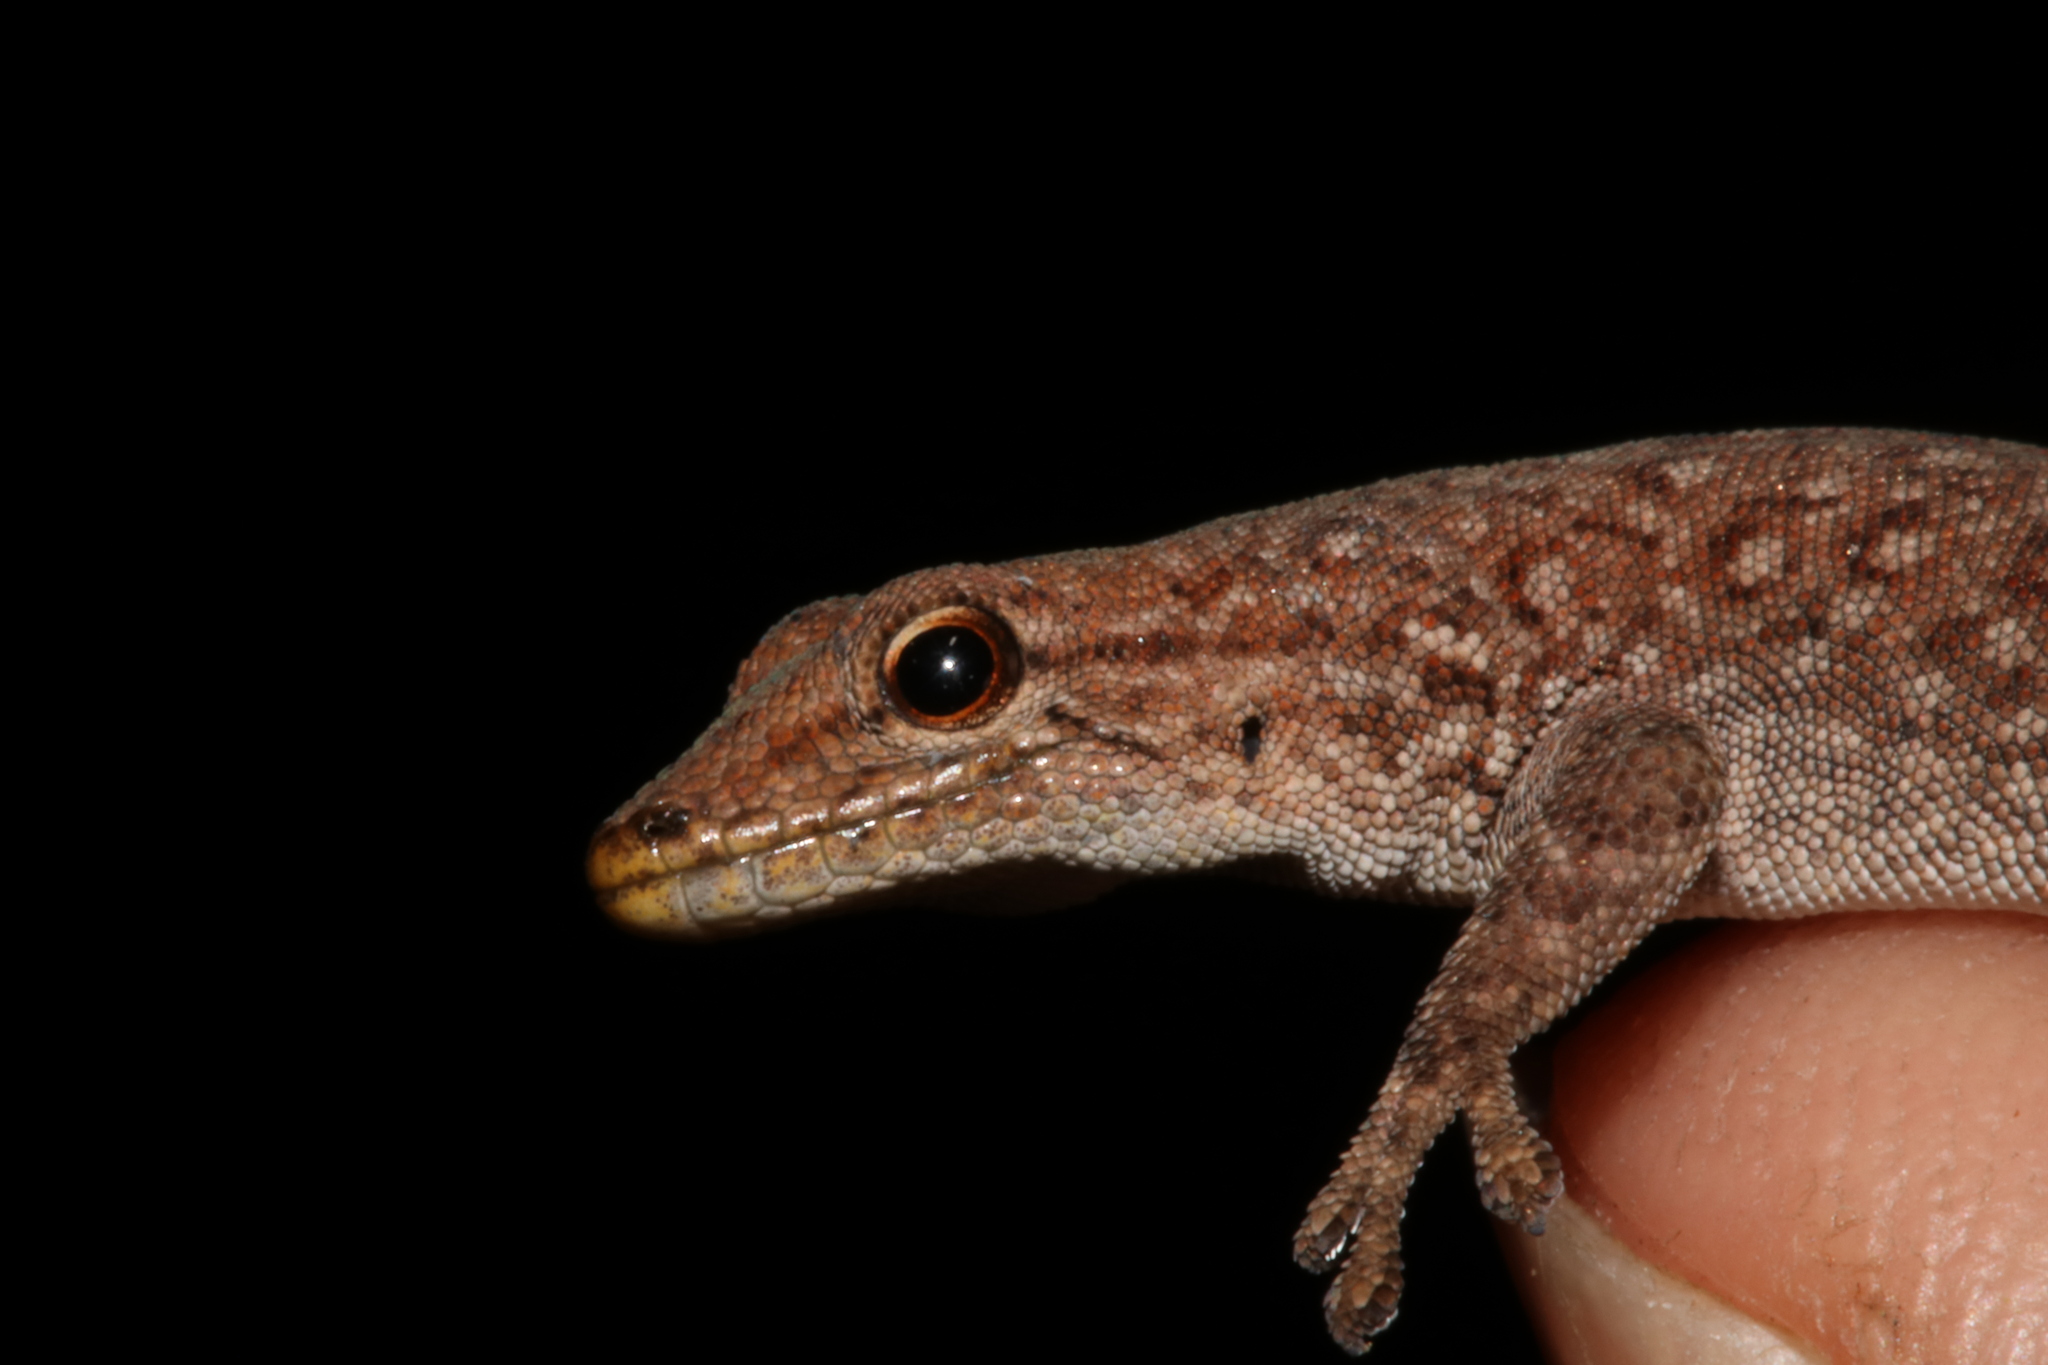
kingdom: Animalia
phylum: Chordata
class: Squamata
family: Gekkonidae
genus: Lygodactylus
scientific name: Lygodactylus soutpansbergensis
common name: Soutpansberg dwarf gecko
